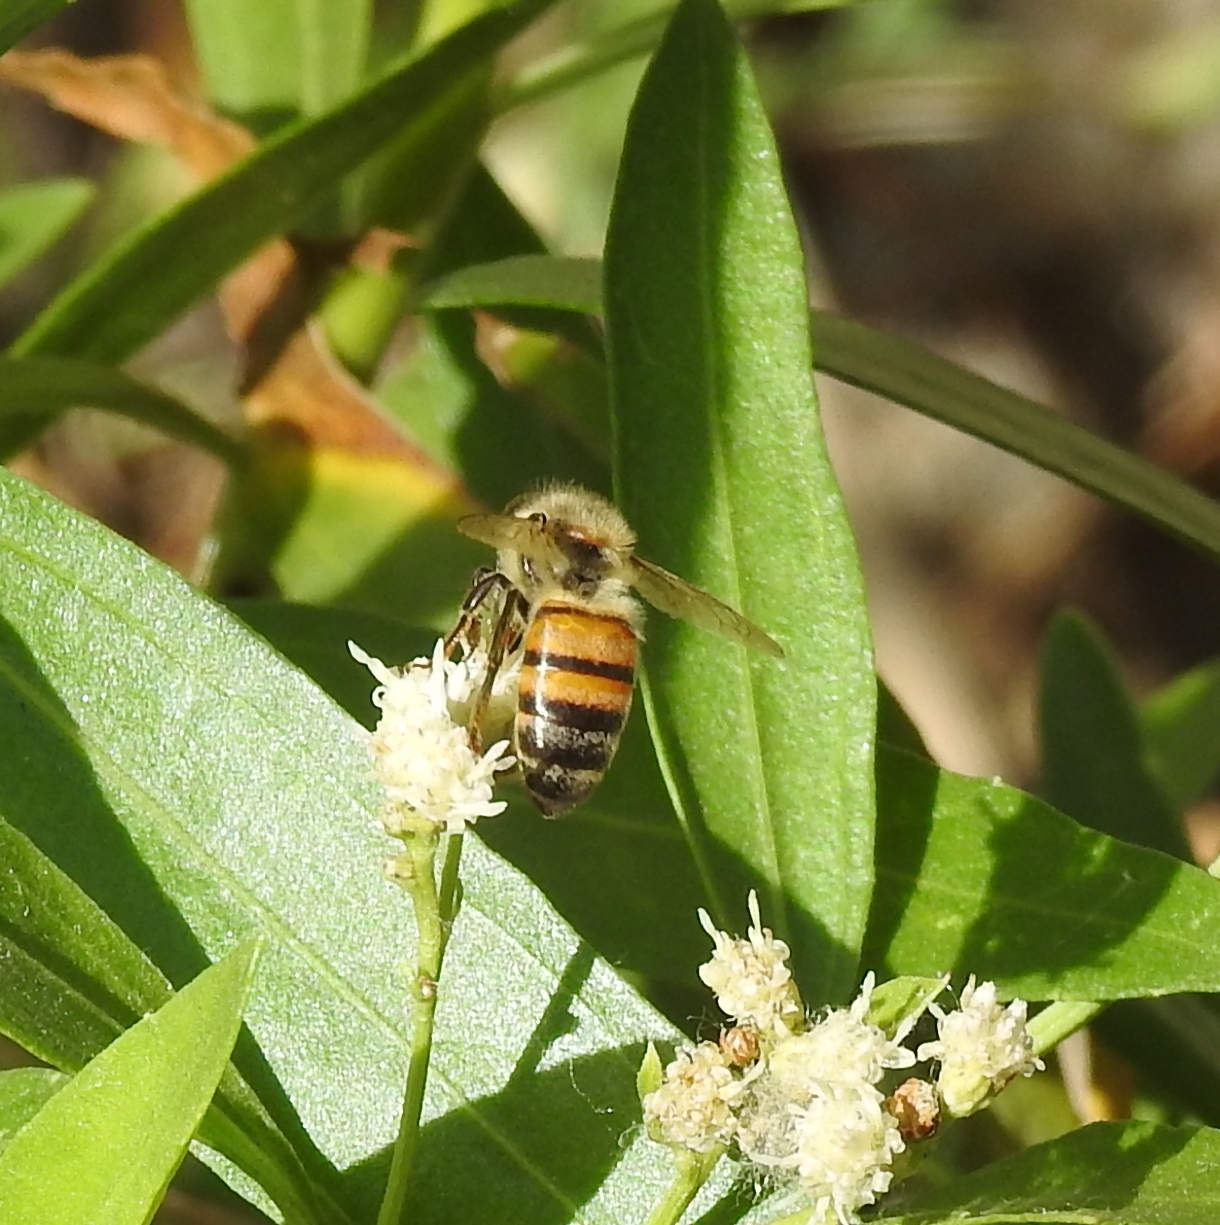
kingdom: Animalia
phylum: Arthropoda
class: Insecta
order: Hymenoptera
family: Apidae
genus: Apis
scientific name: Apis mellifera
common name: Honey bee
